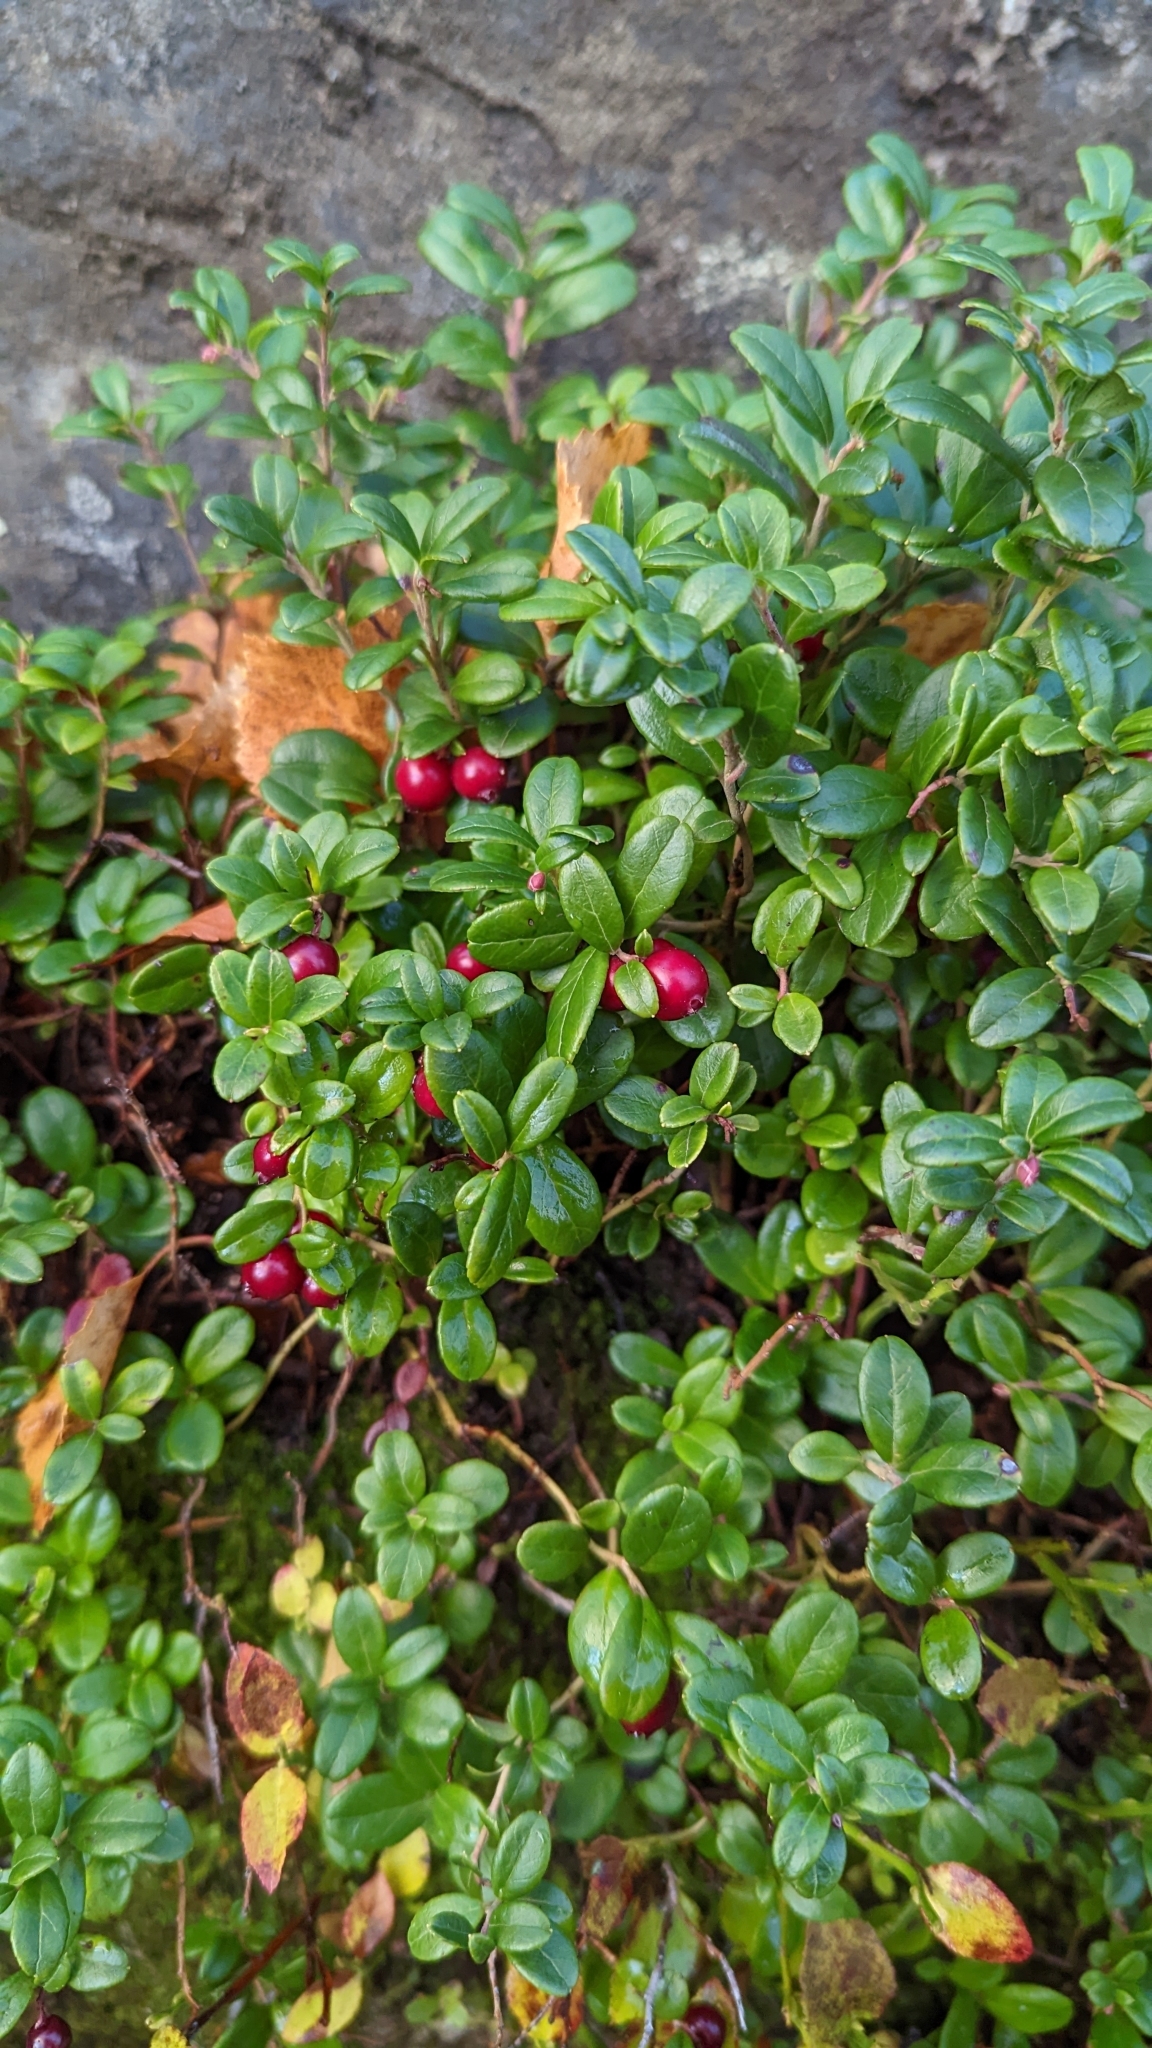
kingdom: Plantae
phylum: Tracheophyta
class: Magnoliopsida
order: Ericales
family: Ericaceae
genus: Vaccinium
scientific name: Vaccinium vitis-idaea
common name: Cowberry
